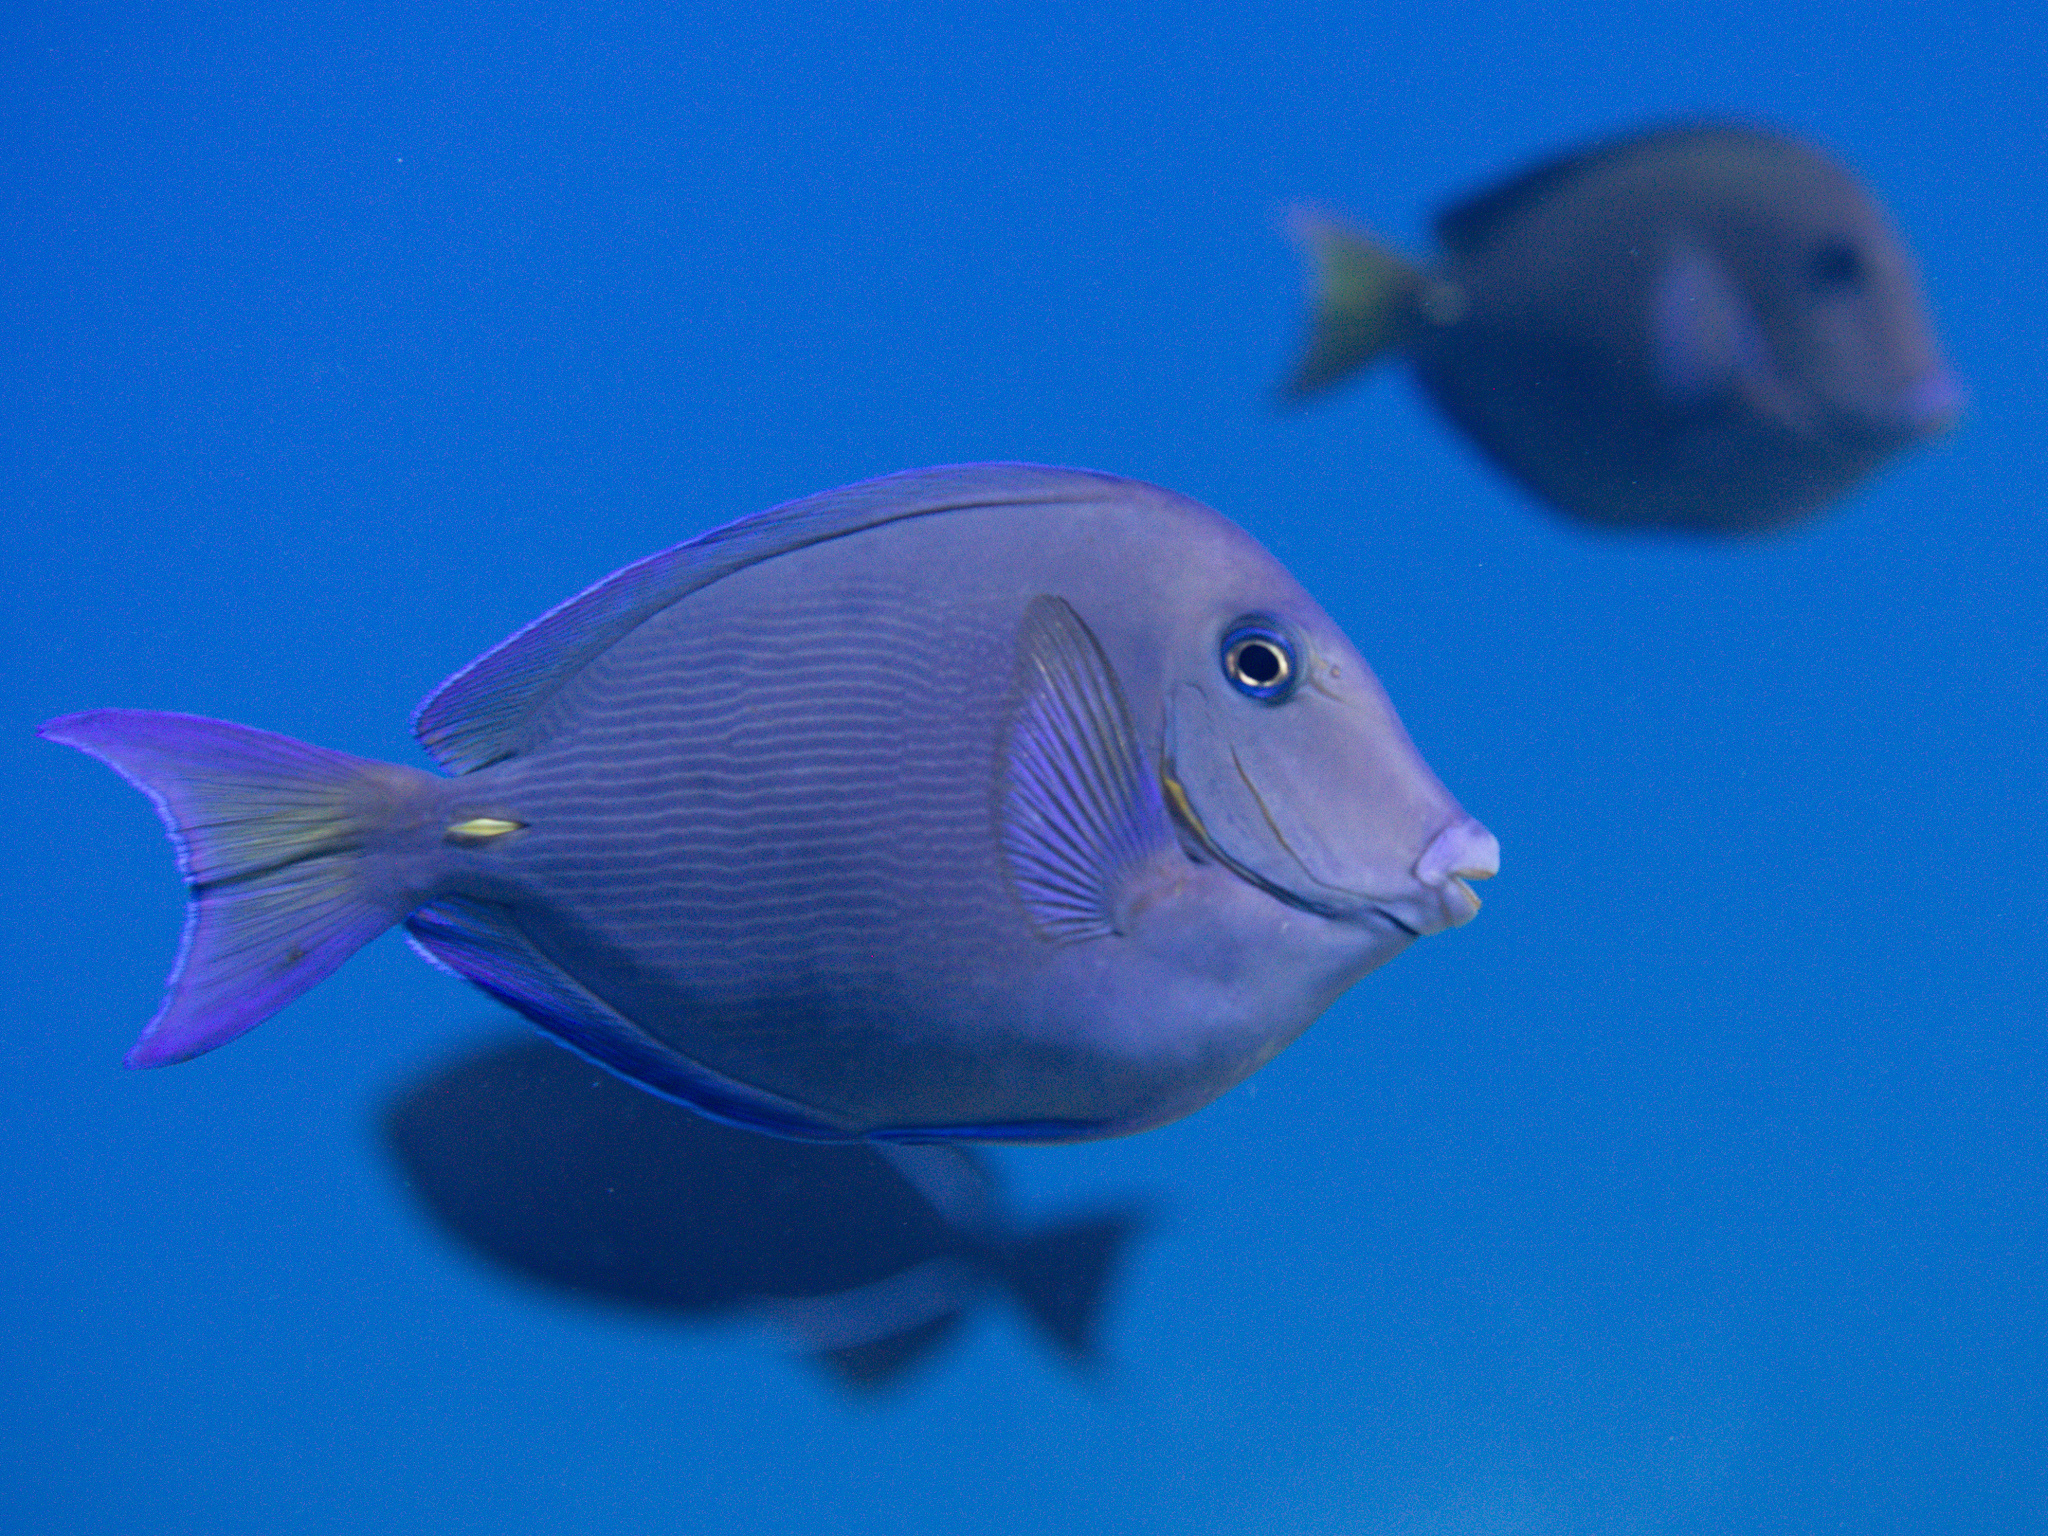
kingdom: Animalia
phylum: Chordata
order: Perciformes
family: Acanthuridae
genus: Acanthurus
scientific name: Acanthurus coeruleus
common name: Blue tang
